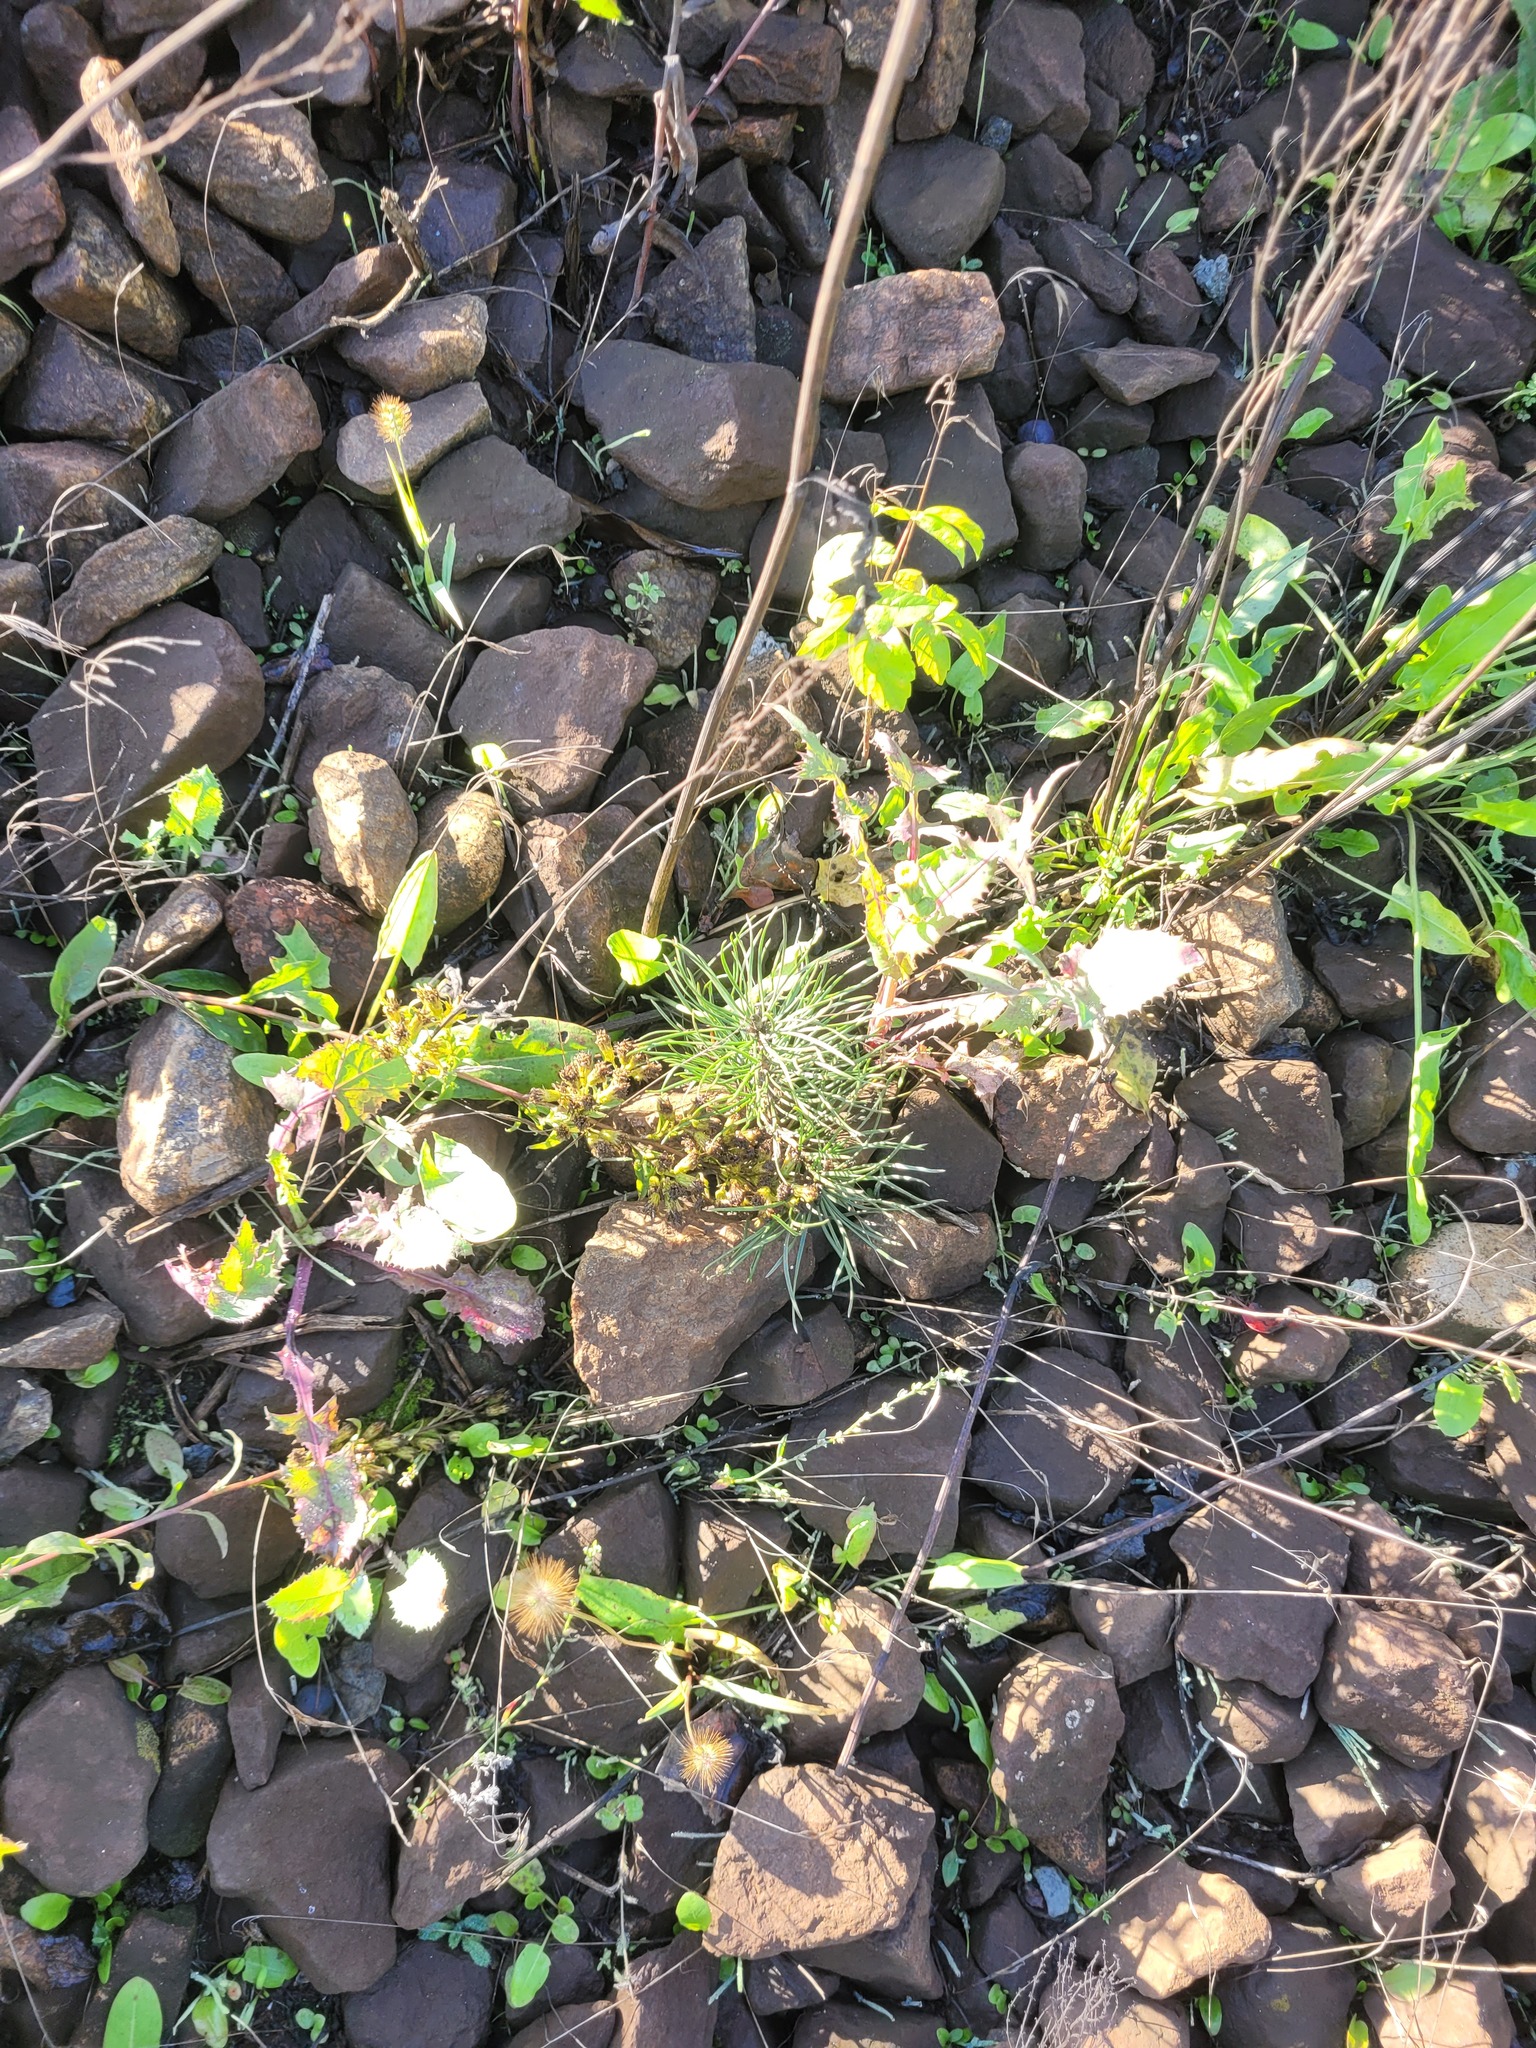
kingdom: Plantae
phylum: Tracheophyta
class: Pinopsida
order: Pinales
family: Pinaceae
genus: Pinus
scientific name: Pinus sylvestris
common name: Scots pine
